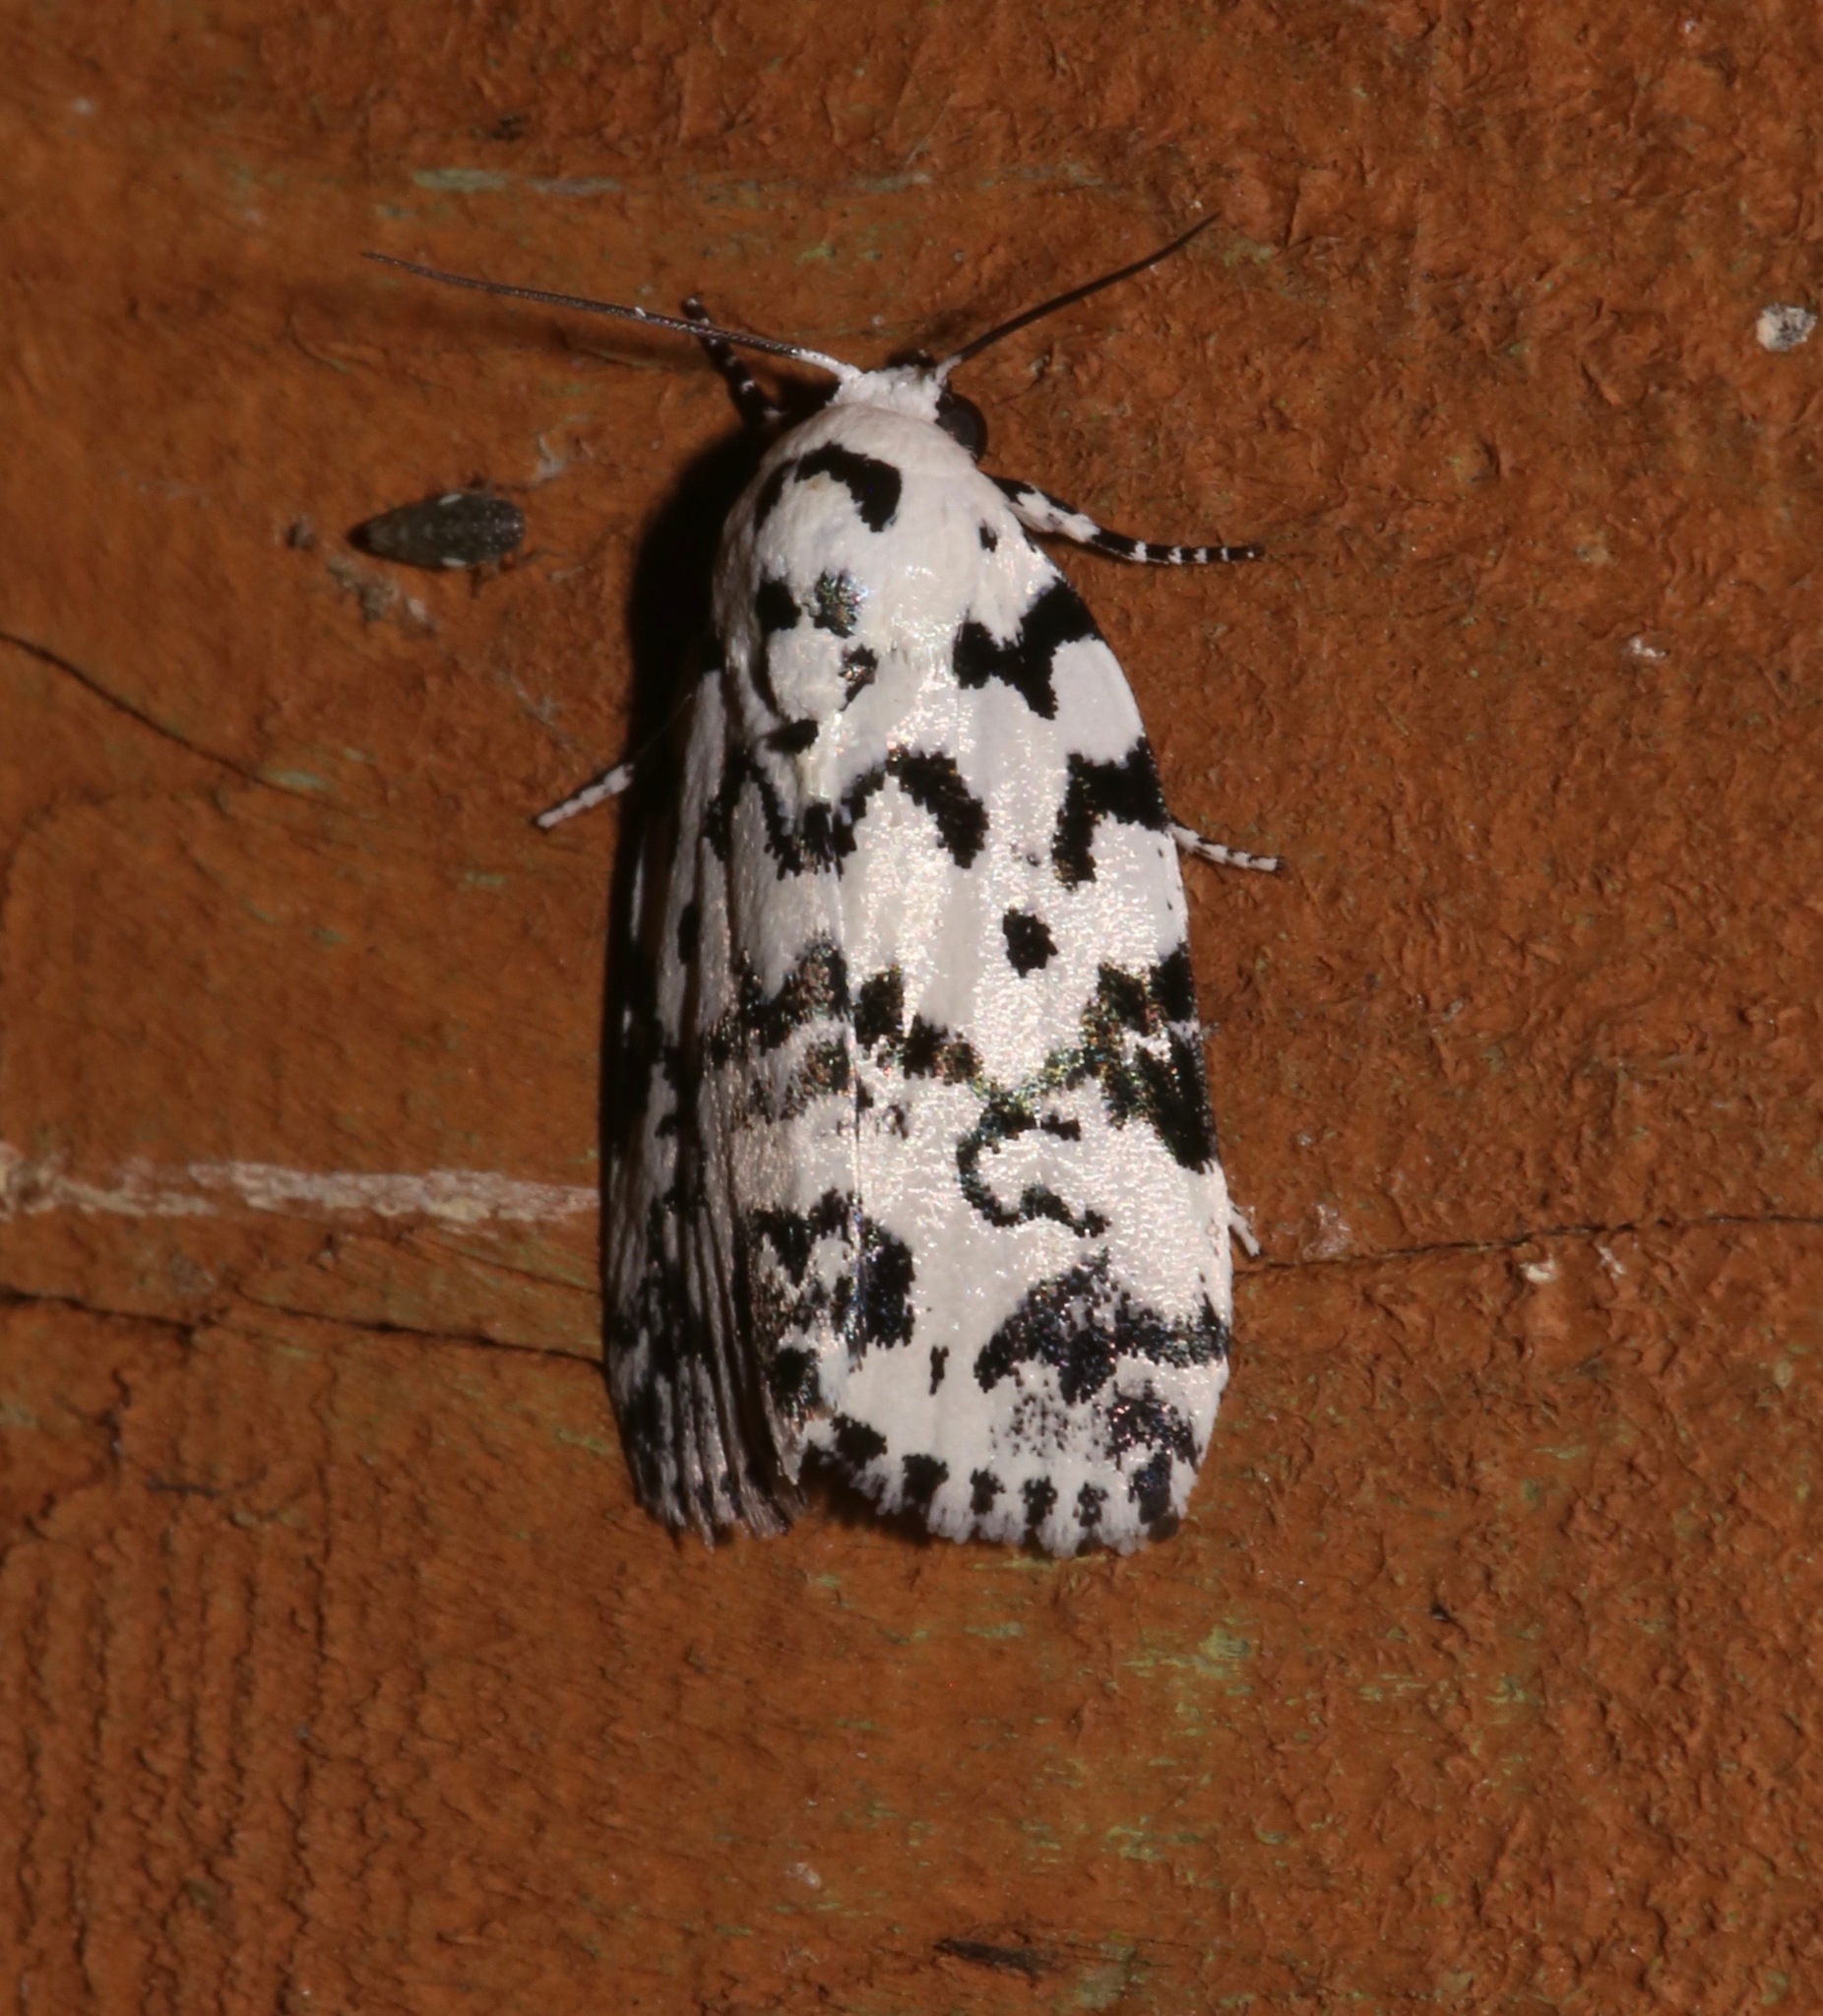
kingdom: Animalia
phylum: Arthropoda
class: Insecta
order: Lepidoptera
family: Noctuidae
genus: Polygrammate
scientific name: Polygrammate hebraeicum
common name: Hebrew moth
